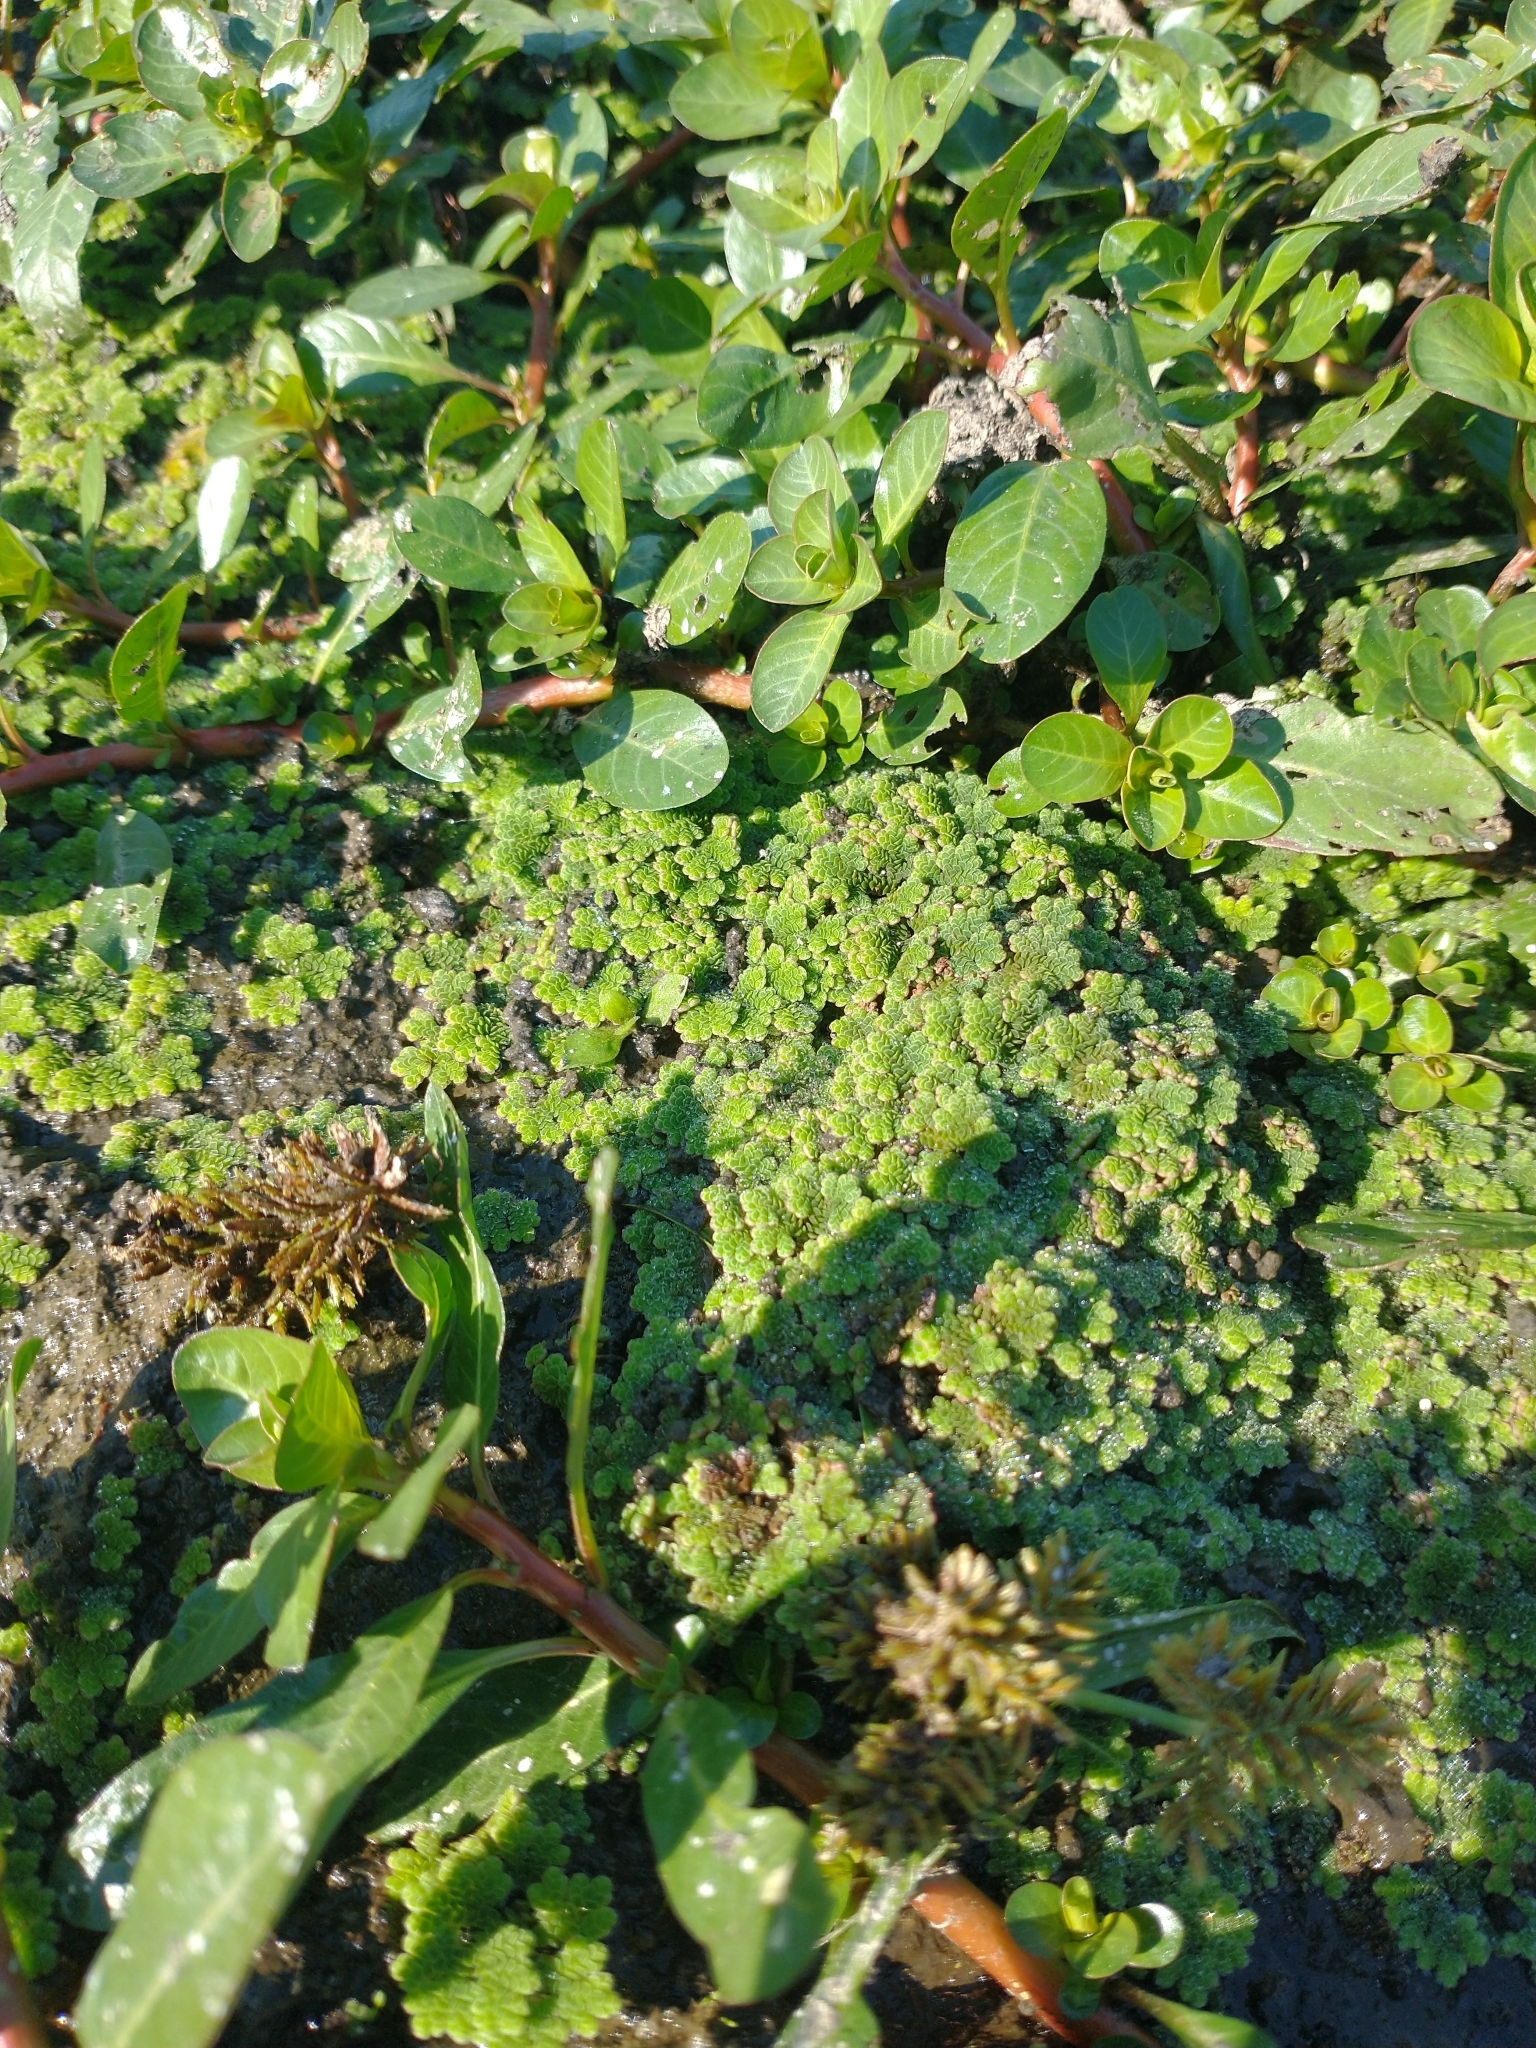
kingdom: Plantae
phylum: Tracheophyta
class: Polypodiopsida
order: Salviniales
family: Salviniaceae
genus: Azolla
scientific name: Azolla filiculoides
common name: Water fern
